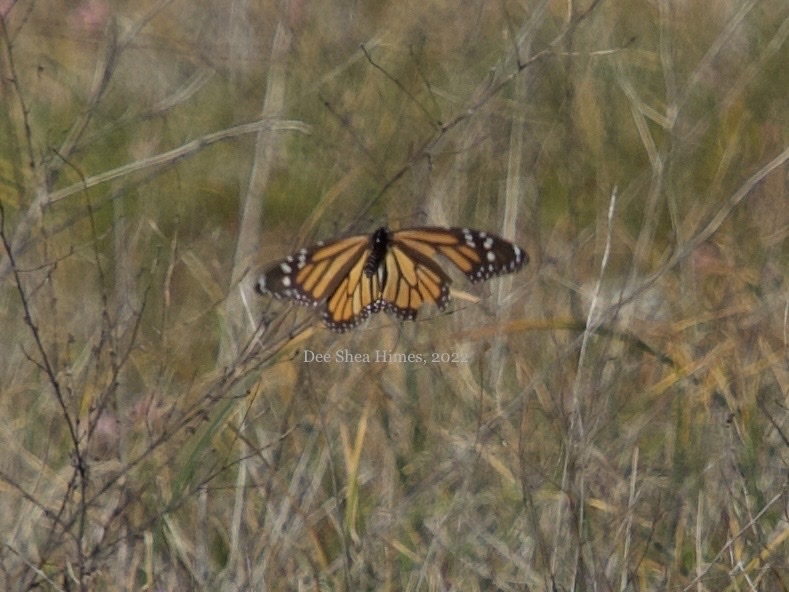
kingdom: Animalia
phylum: Arthropoda
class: Insecta
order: Lepidoptera
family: Nymphalidae
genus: Danaus
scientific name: Danaus plexippus
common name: Monarch
